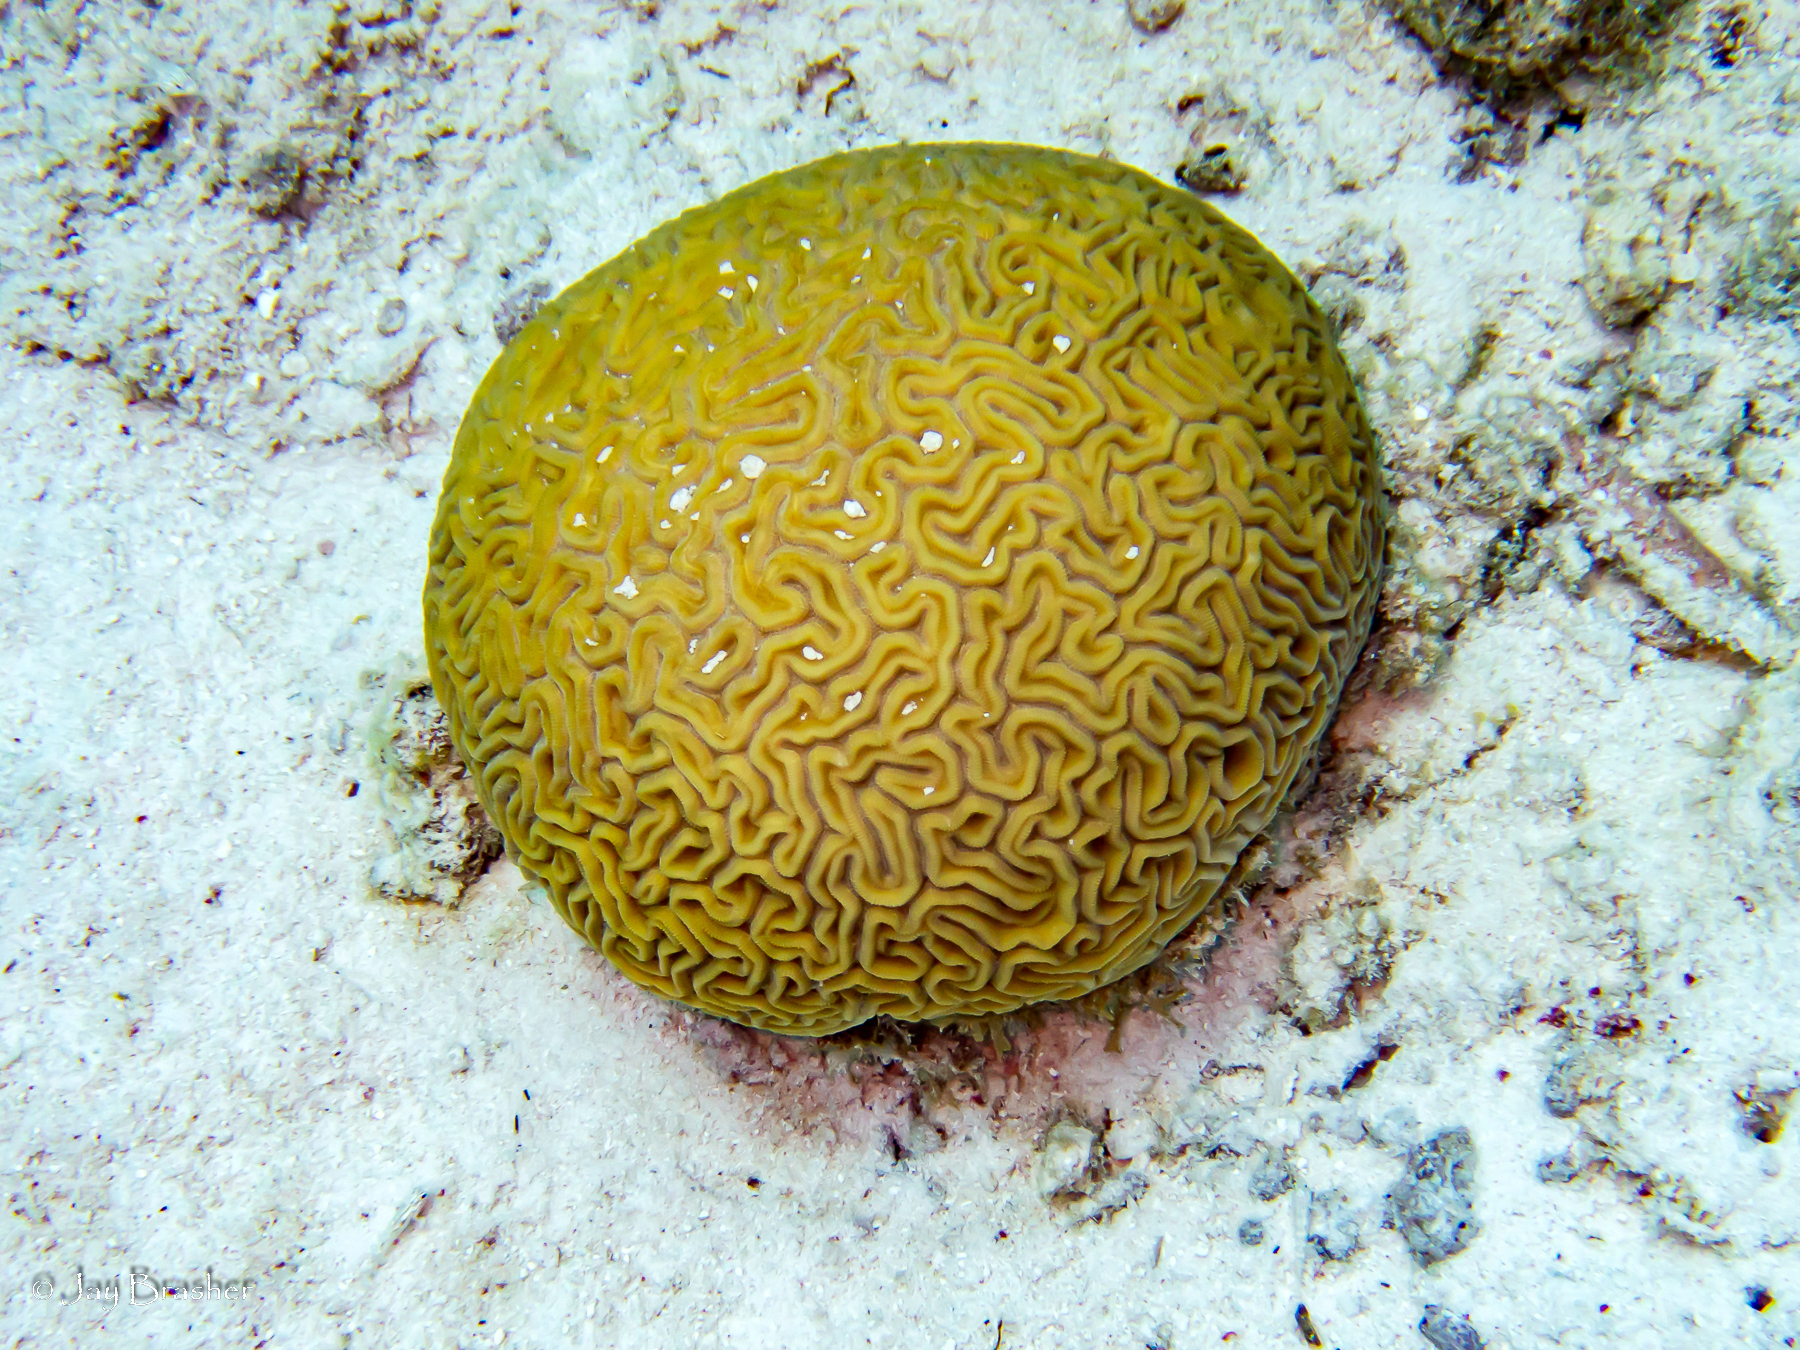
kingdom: Animalia
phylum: Cnidaria
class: Anthozoa
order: Scleractinia
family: Faviidae
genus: Diploria
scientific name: Diploria labyrinthiformis
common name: Grooved brain coral
